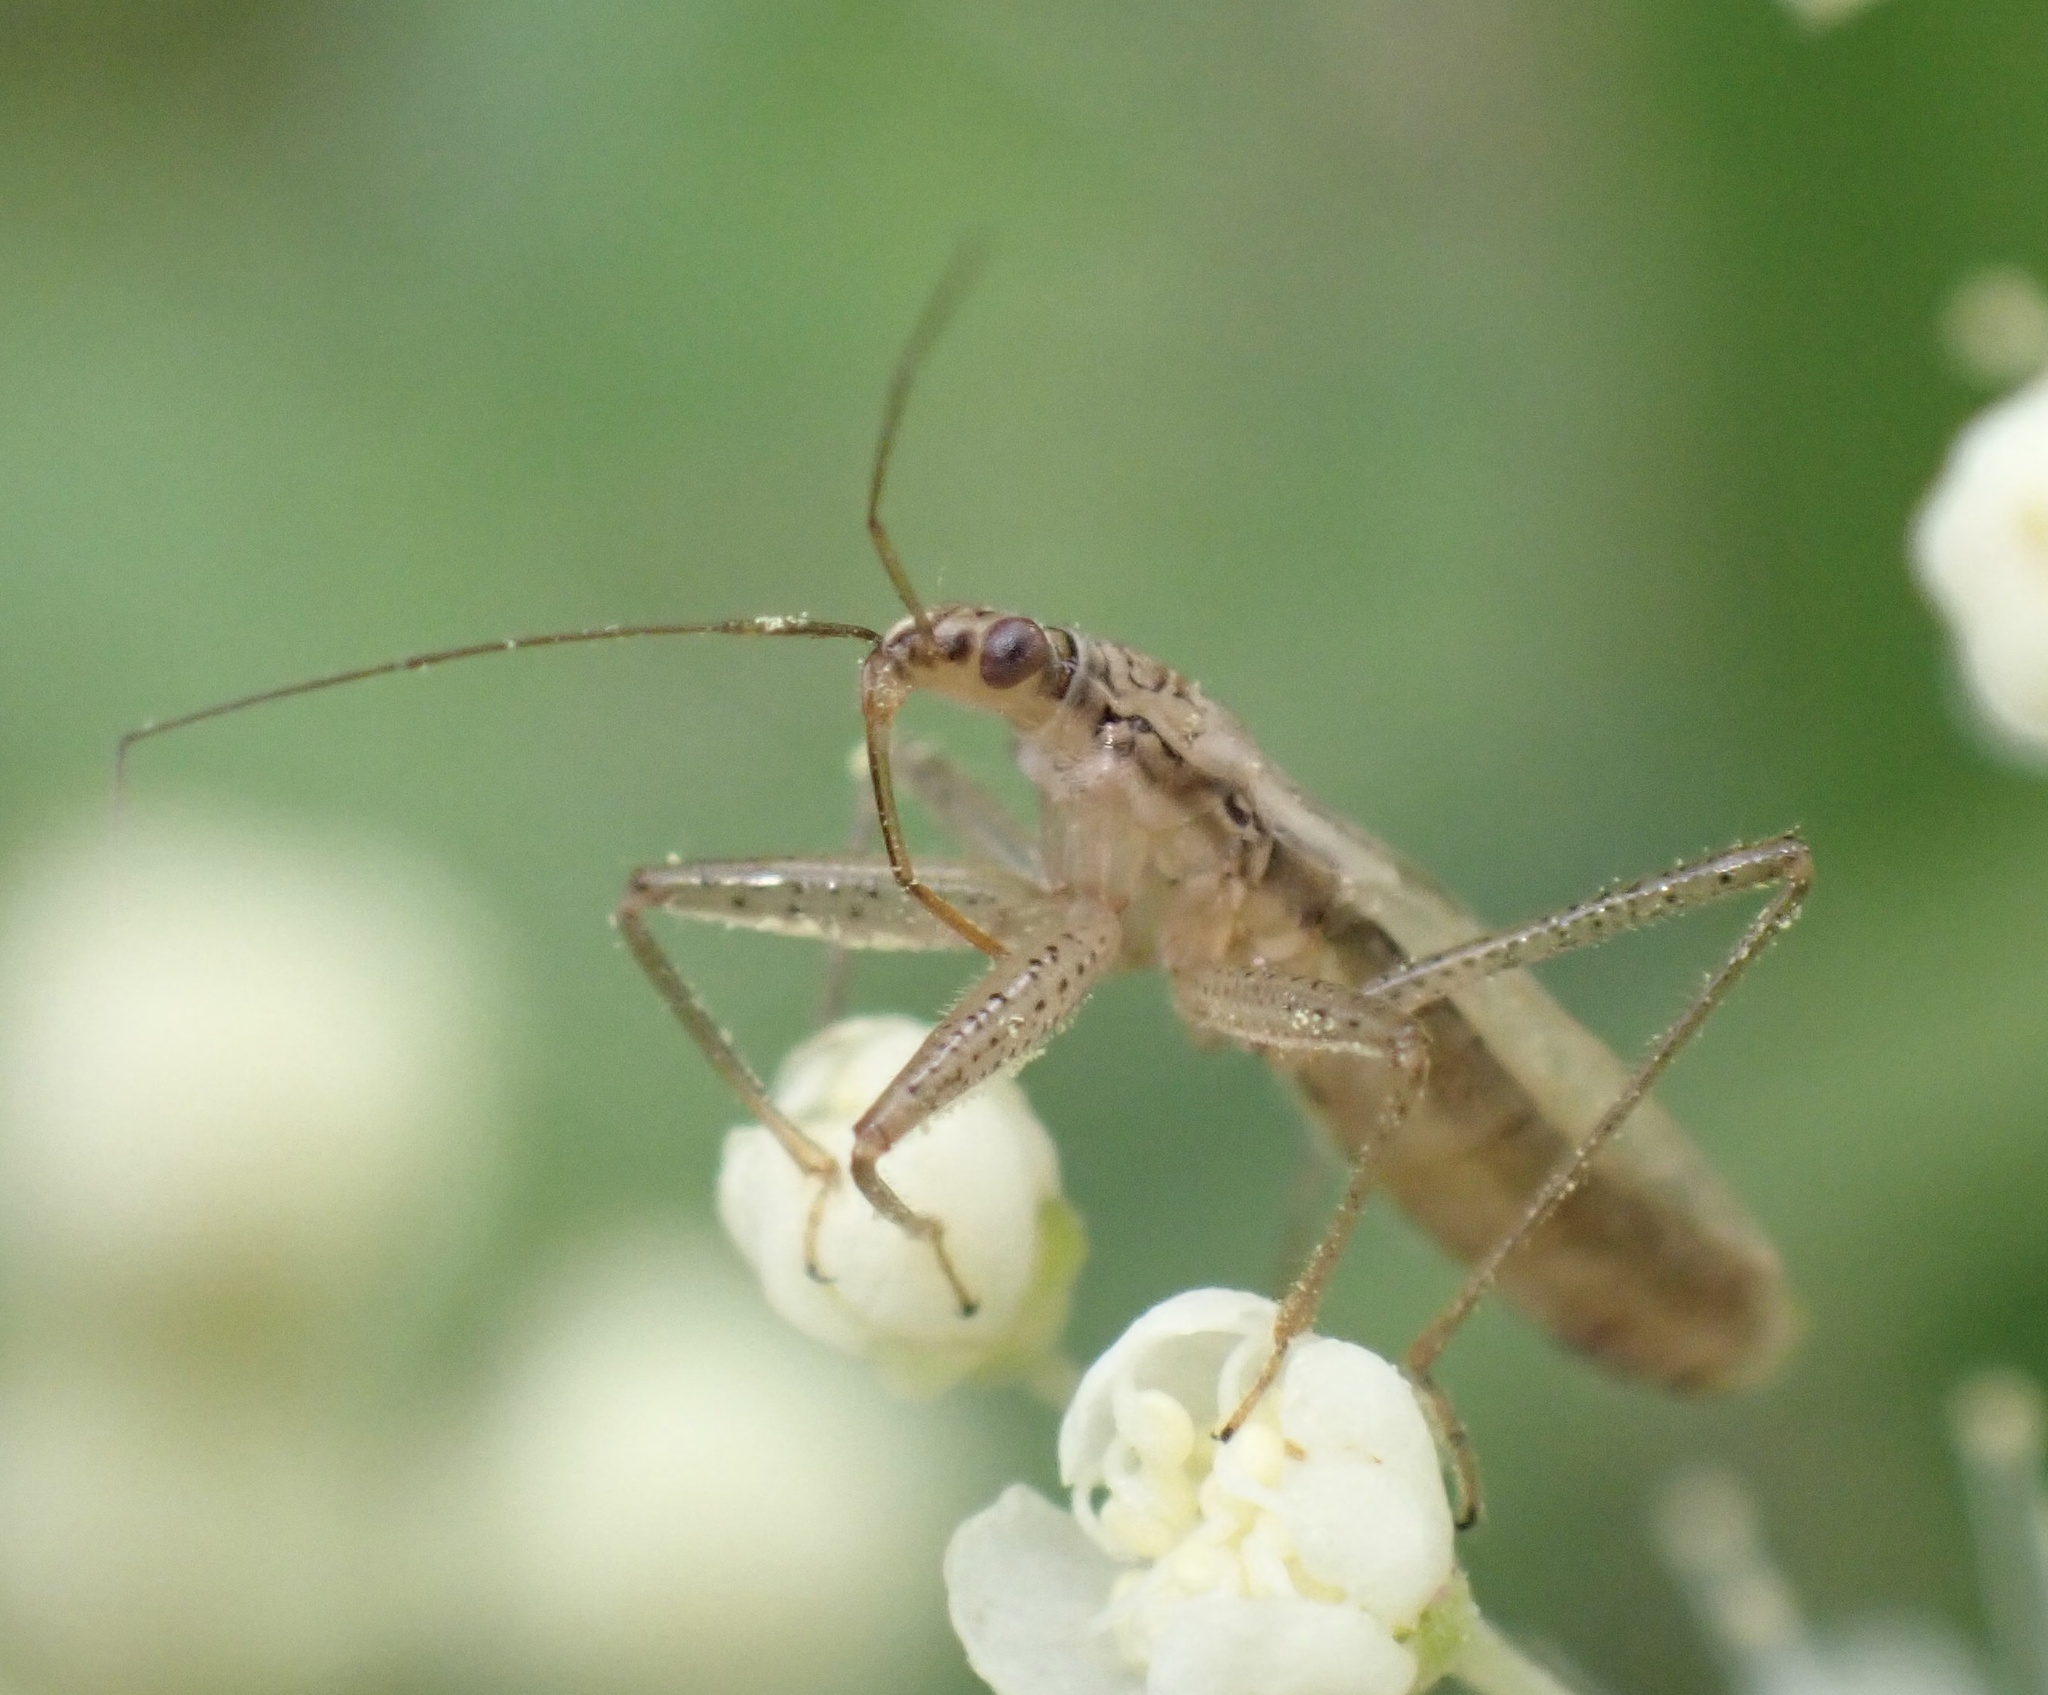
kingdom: Animalia
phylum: Arthropoda
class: Insecta
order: Hemiptera
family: Nabidae
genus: Nabis
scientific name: Nabis limbatus
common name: Marsh damselbug
